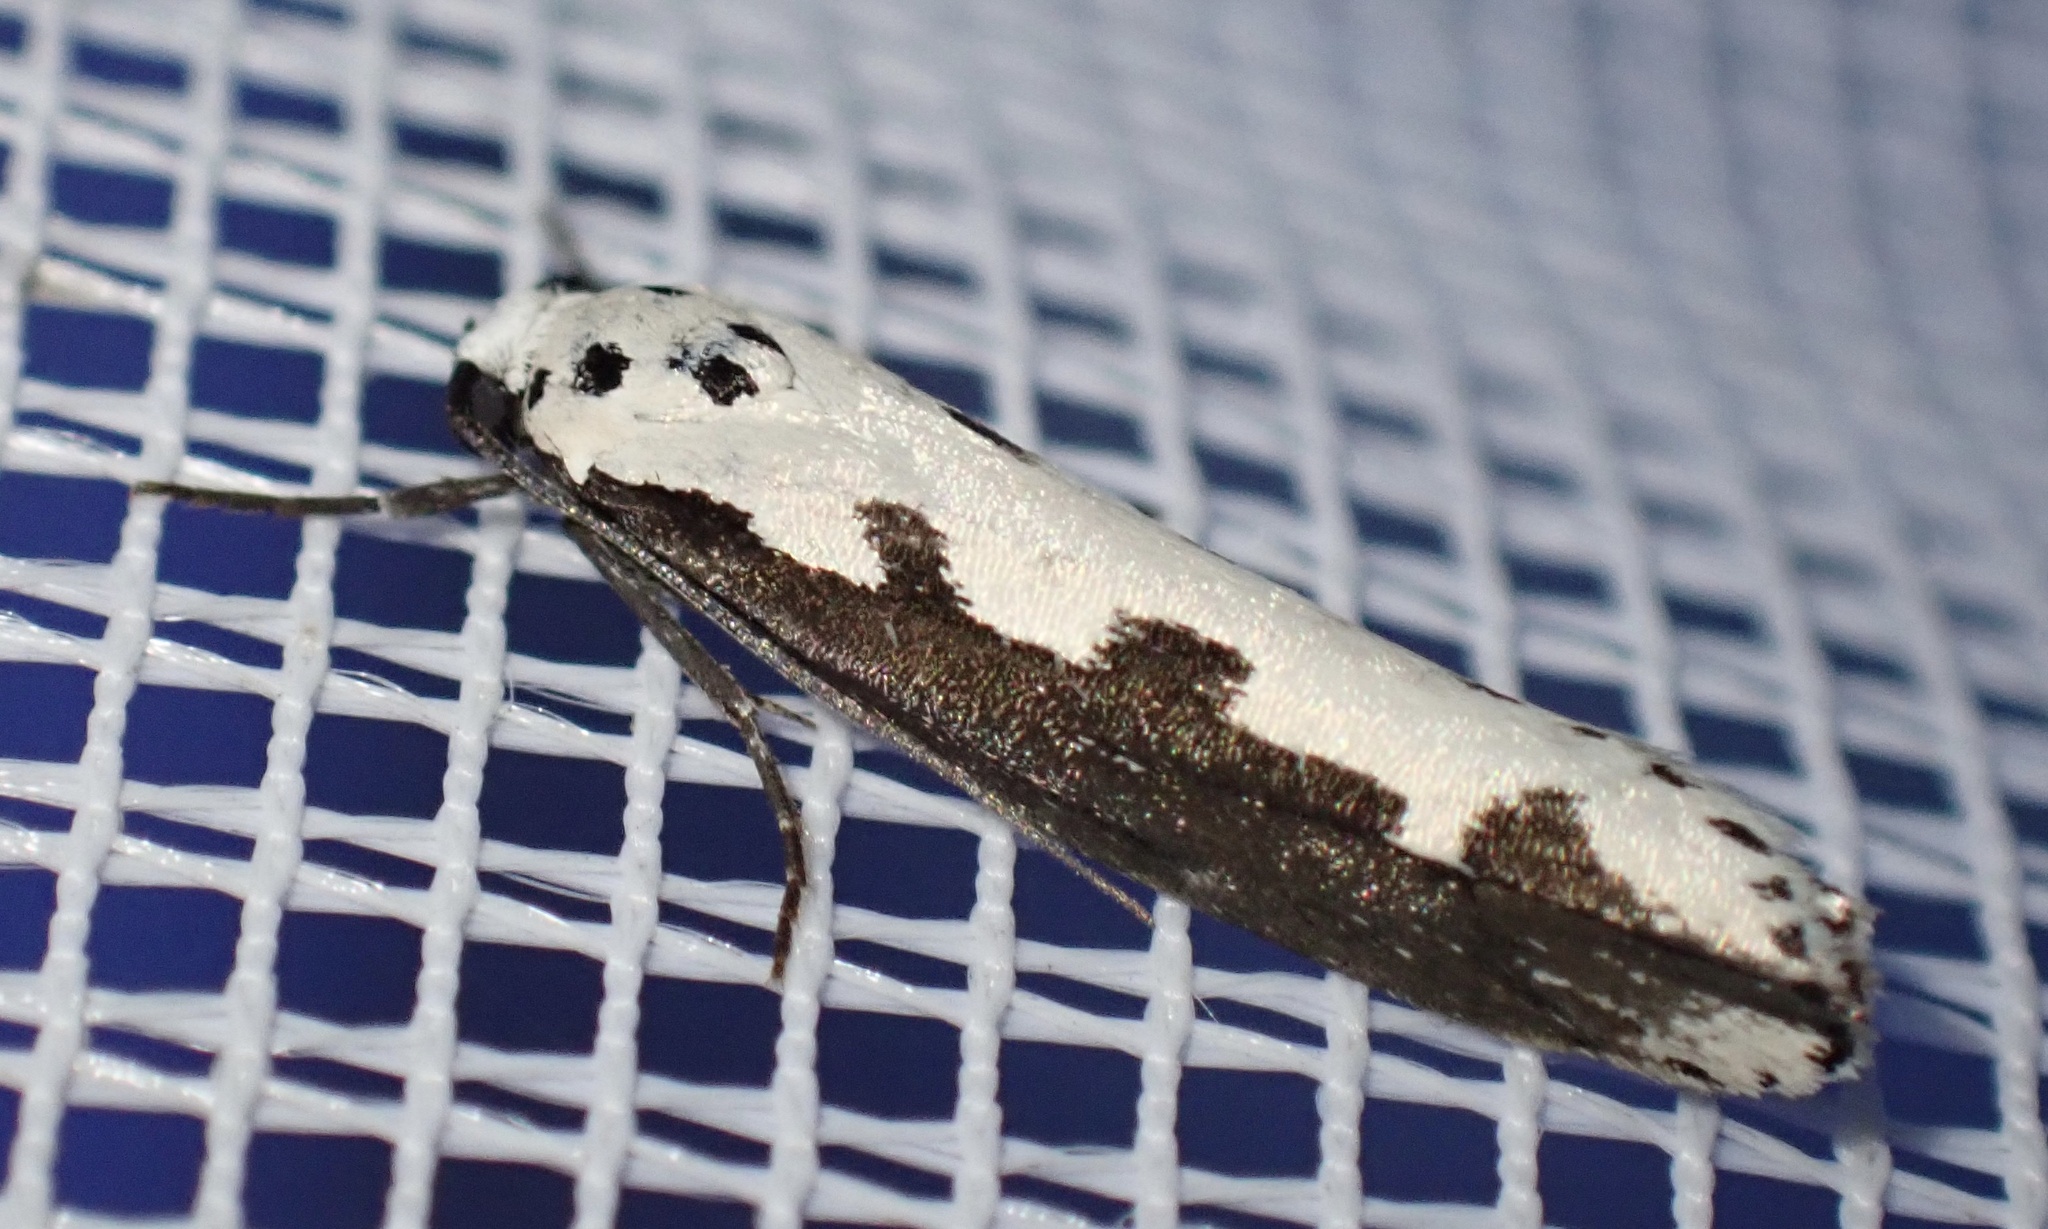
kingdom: Animalia
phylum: Arthropoda
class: Insecta
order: Lepidoptera
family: Ethmiidae
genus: Ethmia
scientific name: Ethmia bipunctella
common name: Bordered ermel
